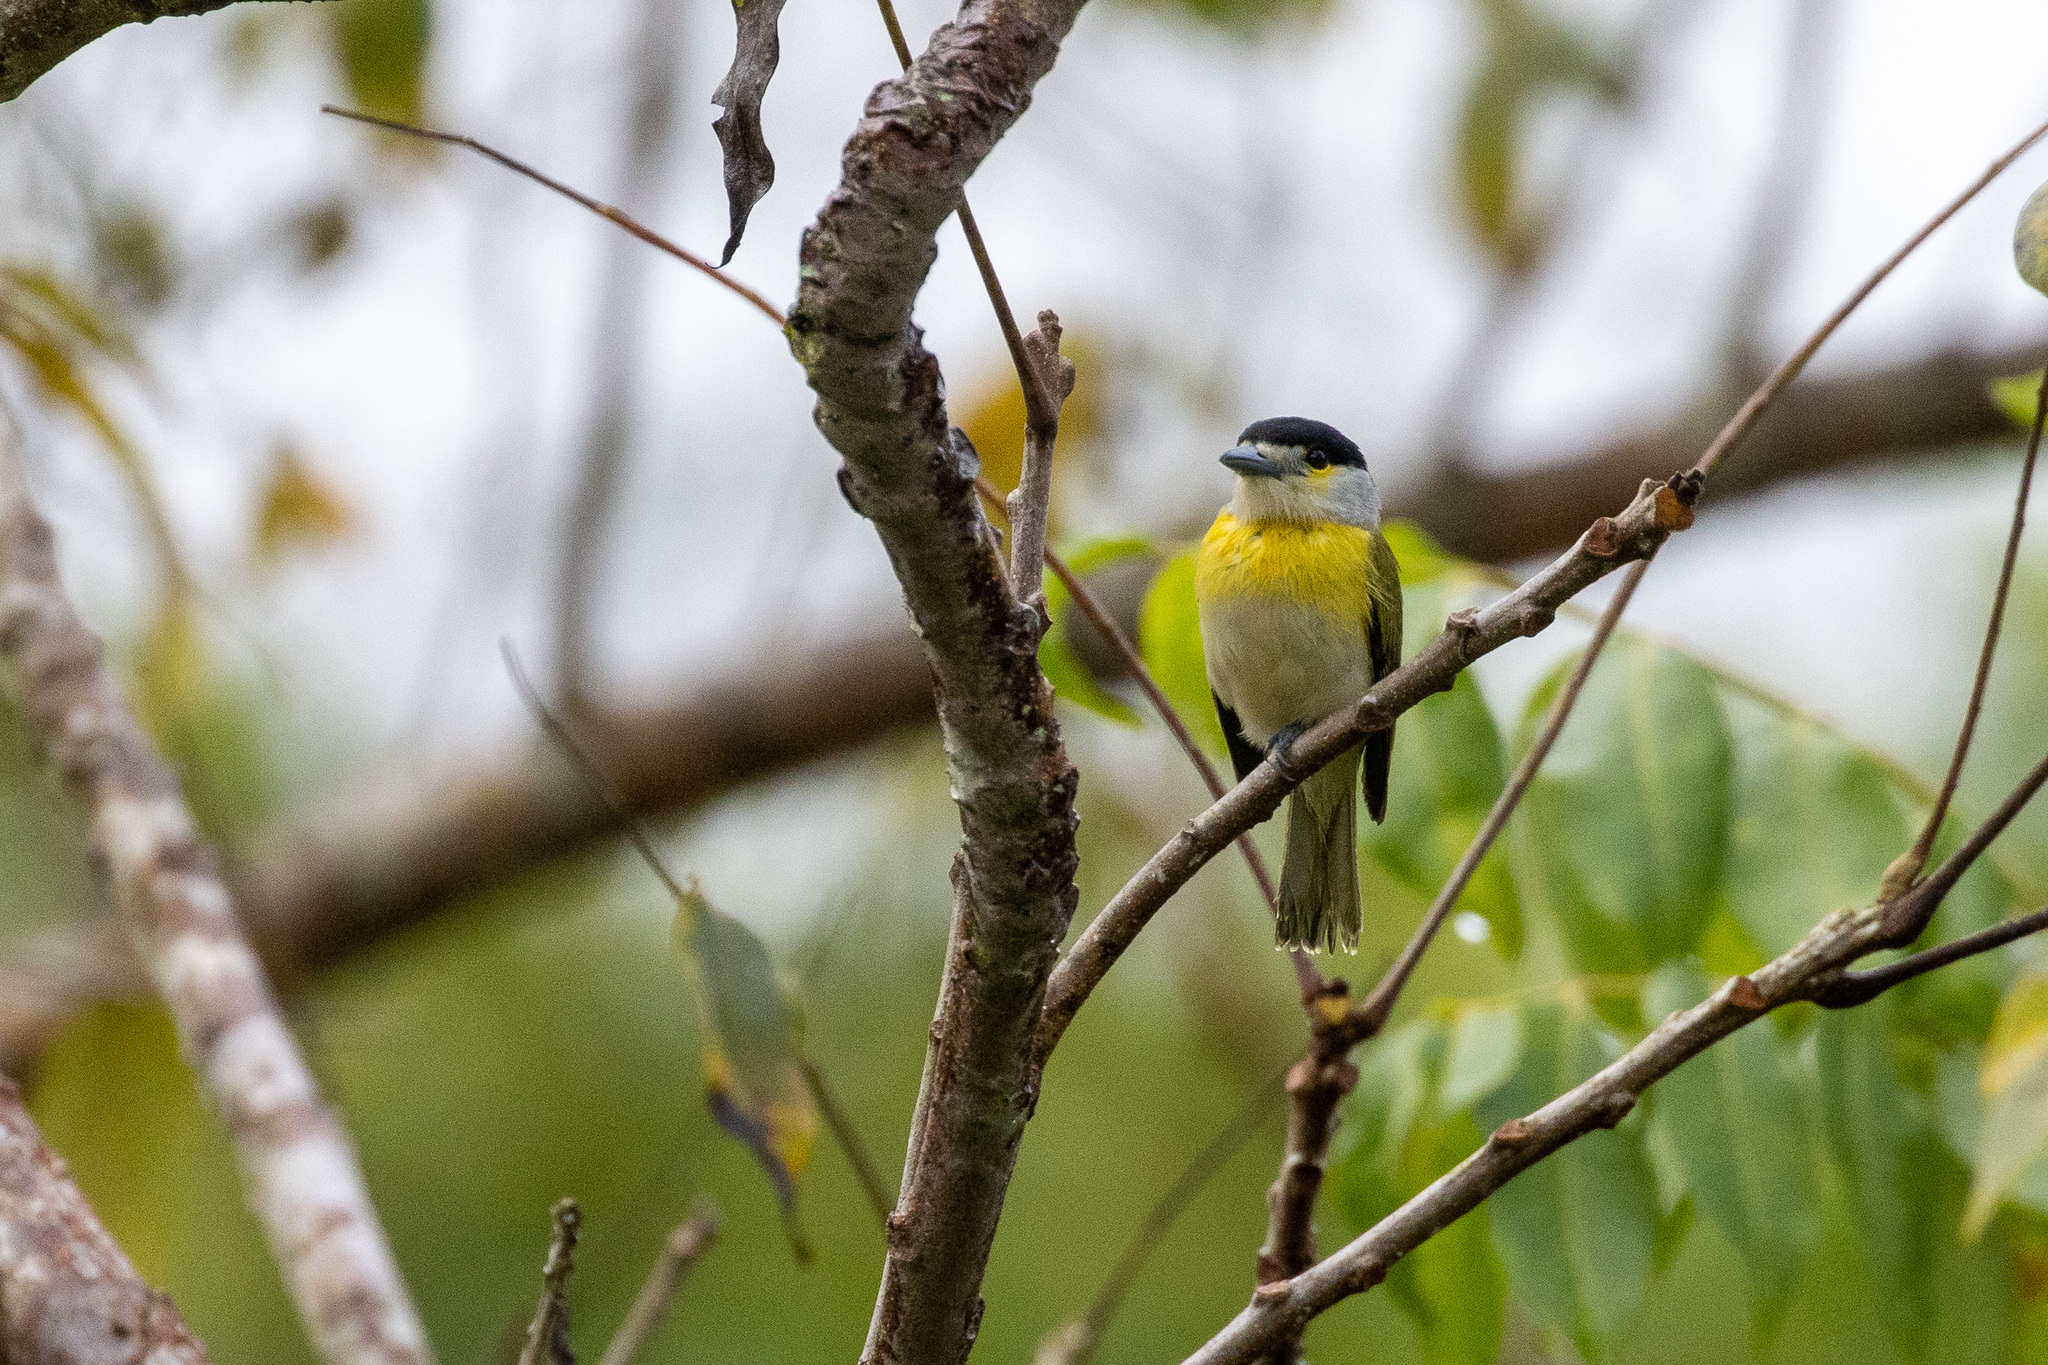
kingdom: Animalia
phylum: Chordata
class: Aves
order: Passeriformes
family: Cotingidae
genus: Pachyramphus
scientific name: Pachyramphus viridis
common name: Green-backed becard
